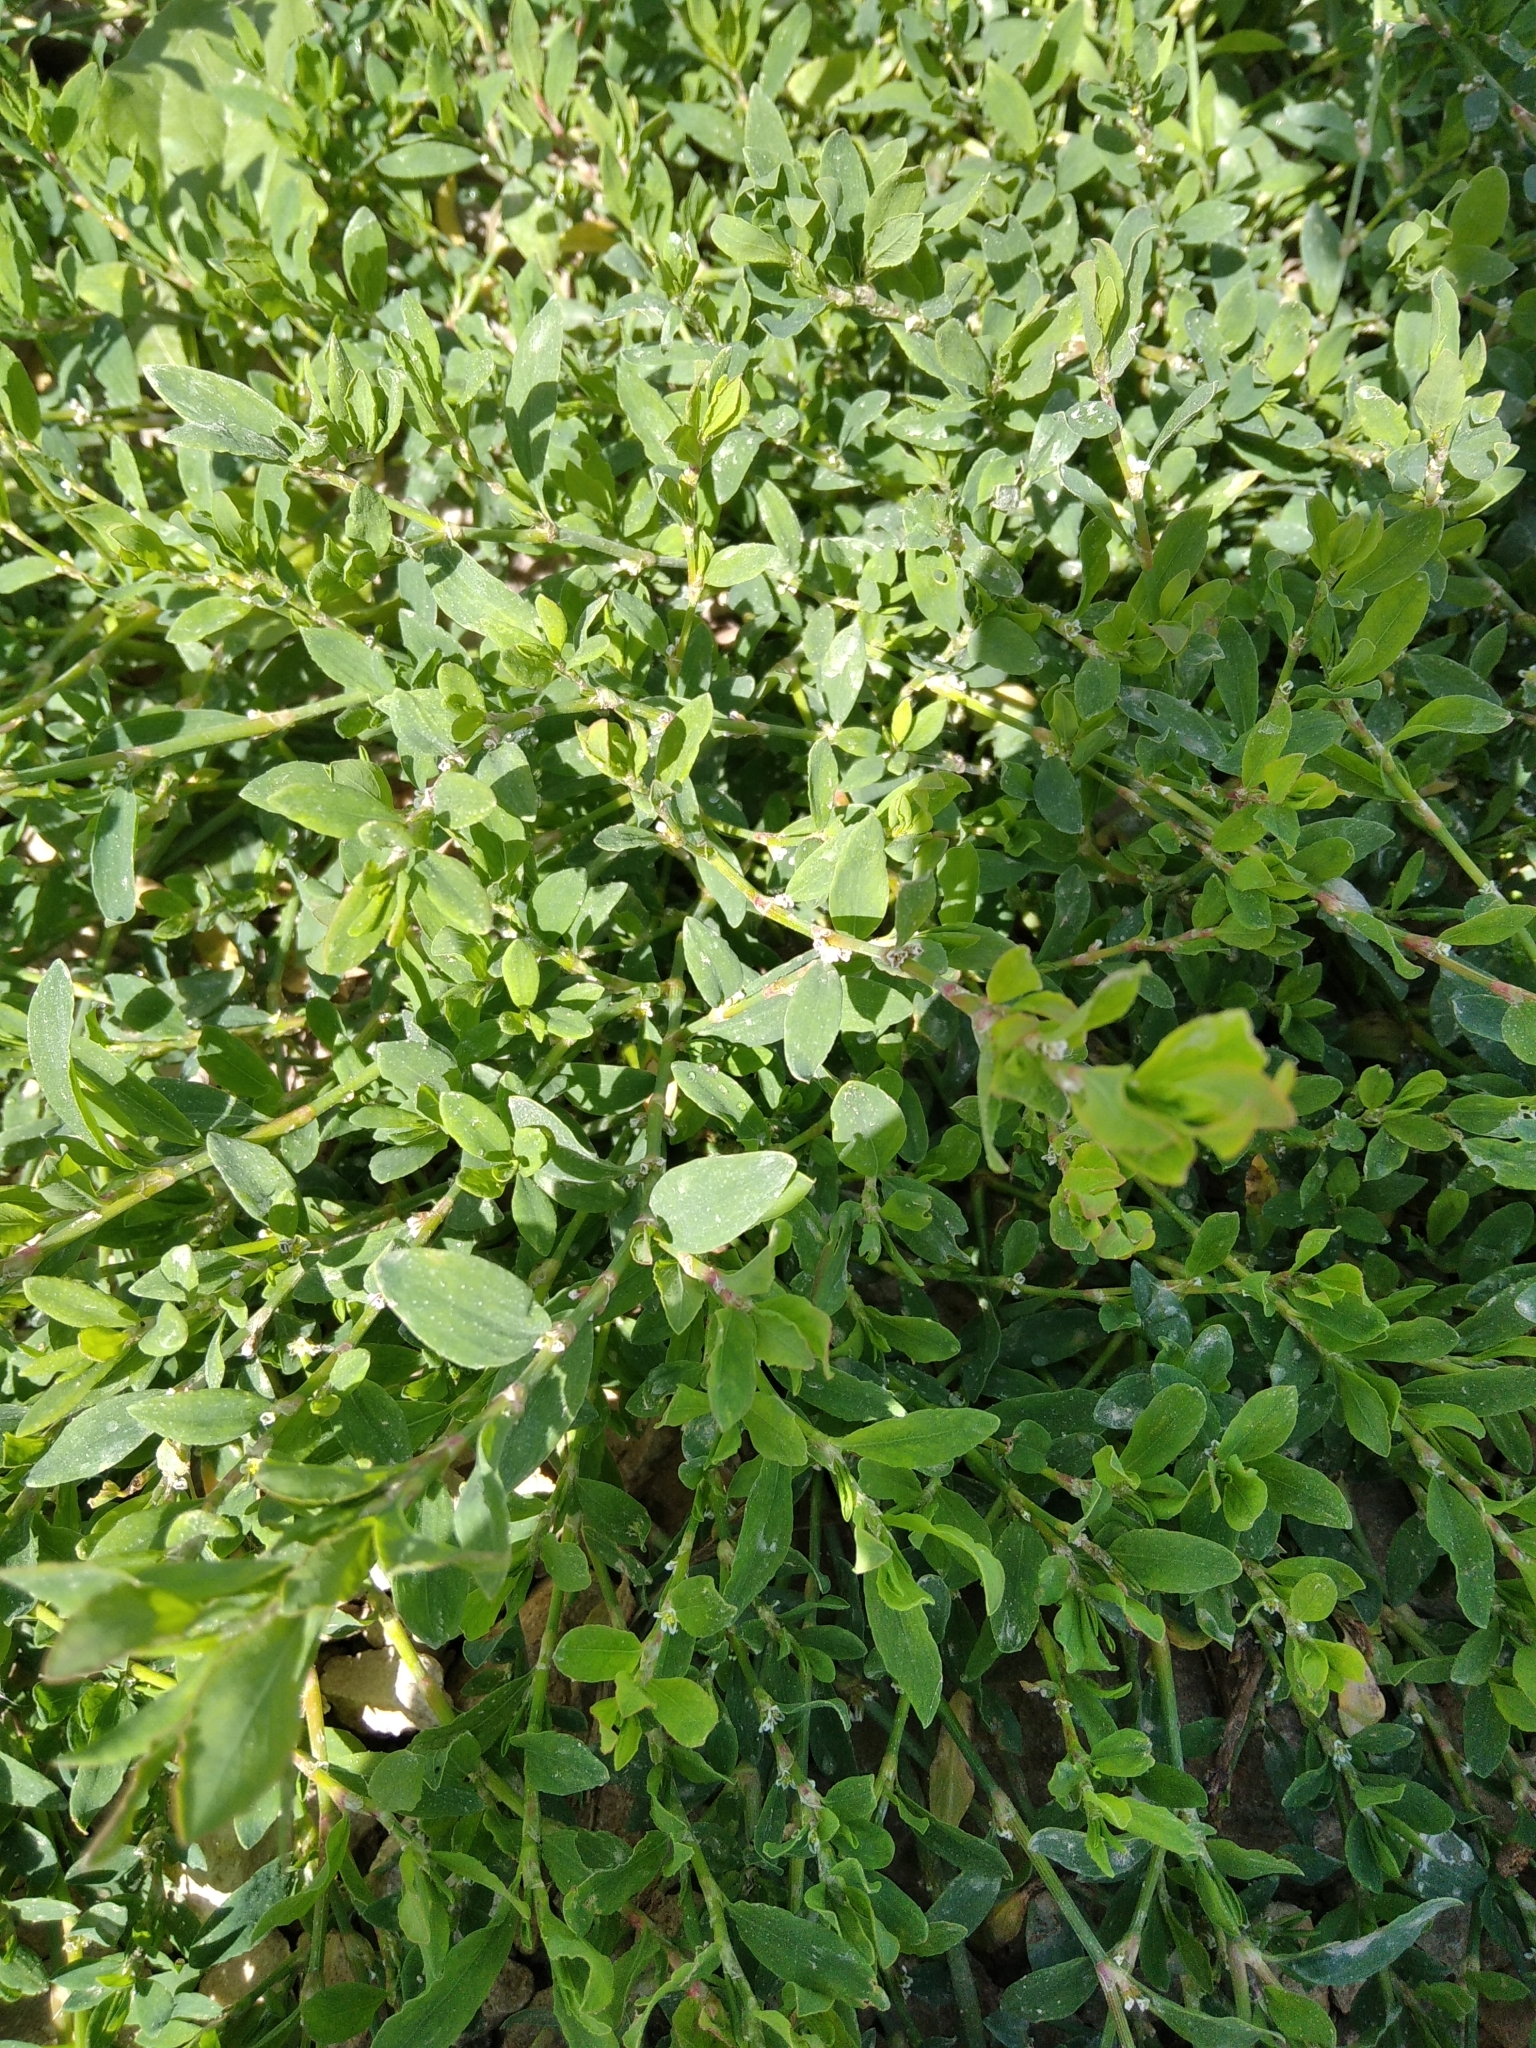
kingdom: Plantae
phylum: Tracheophyta
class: Magnoliopsida
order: Caryophyllales
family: Polygonaceae
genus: Polygonum
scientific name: Polygonum
